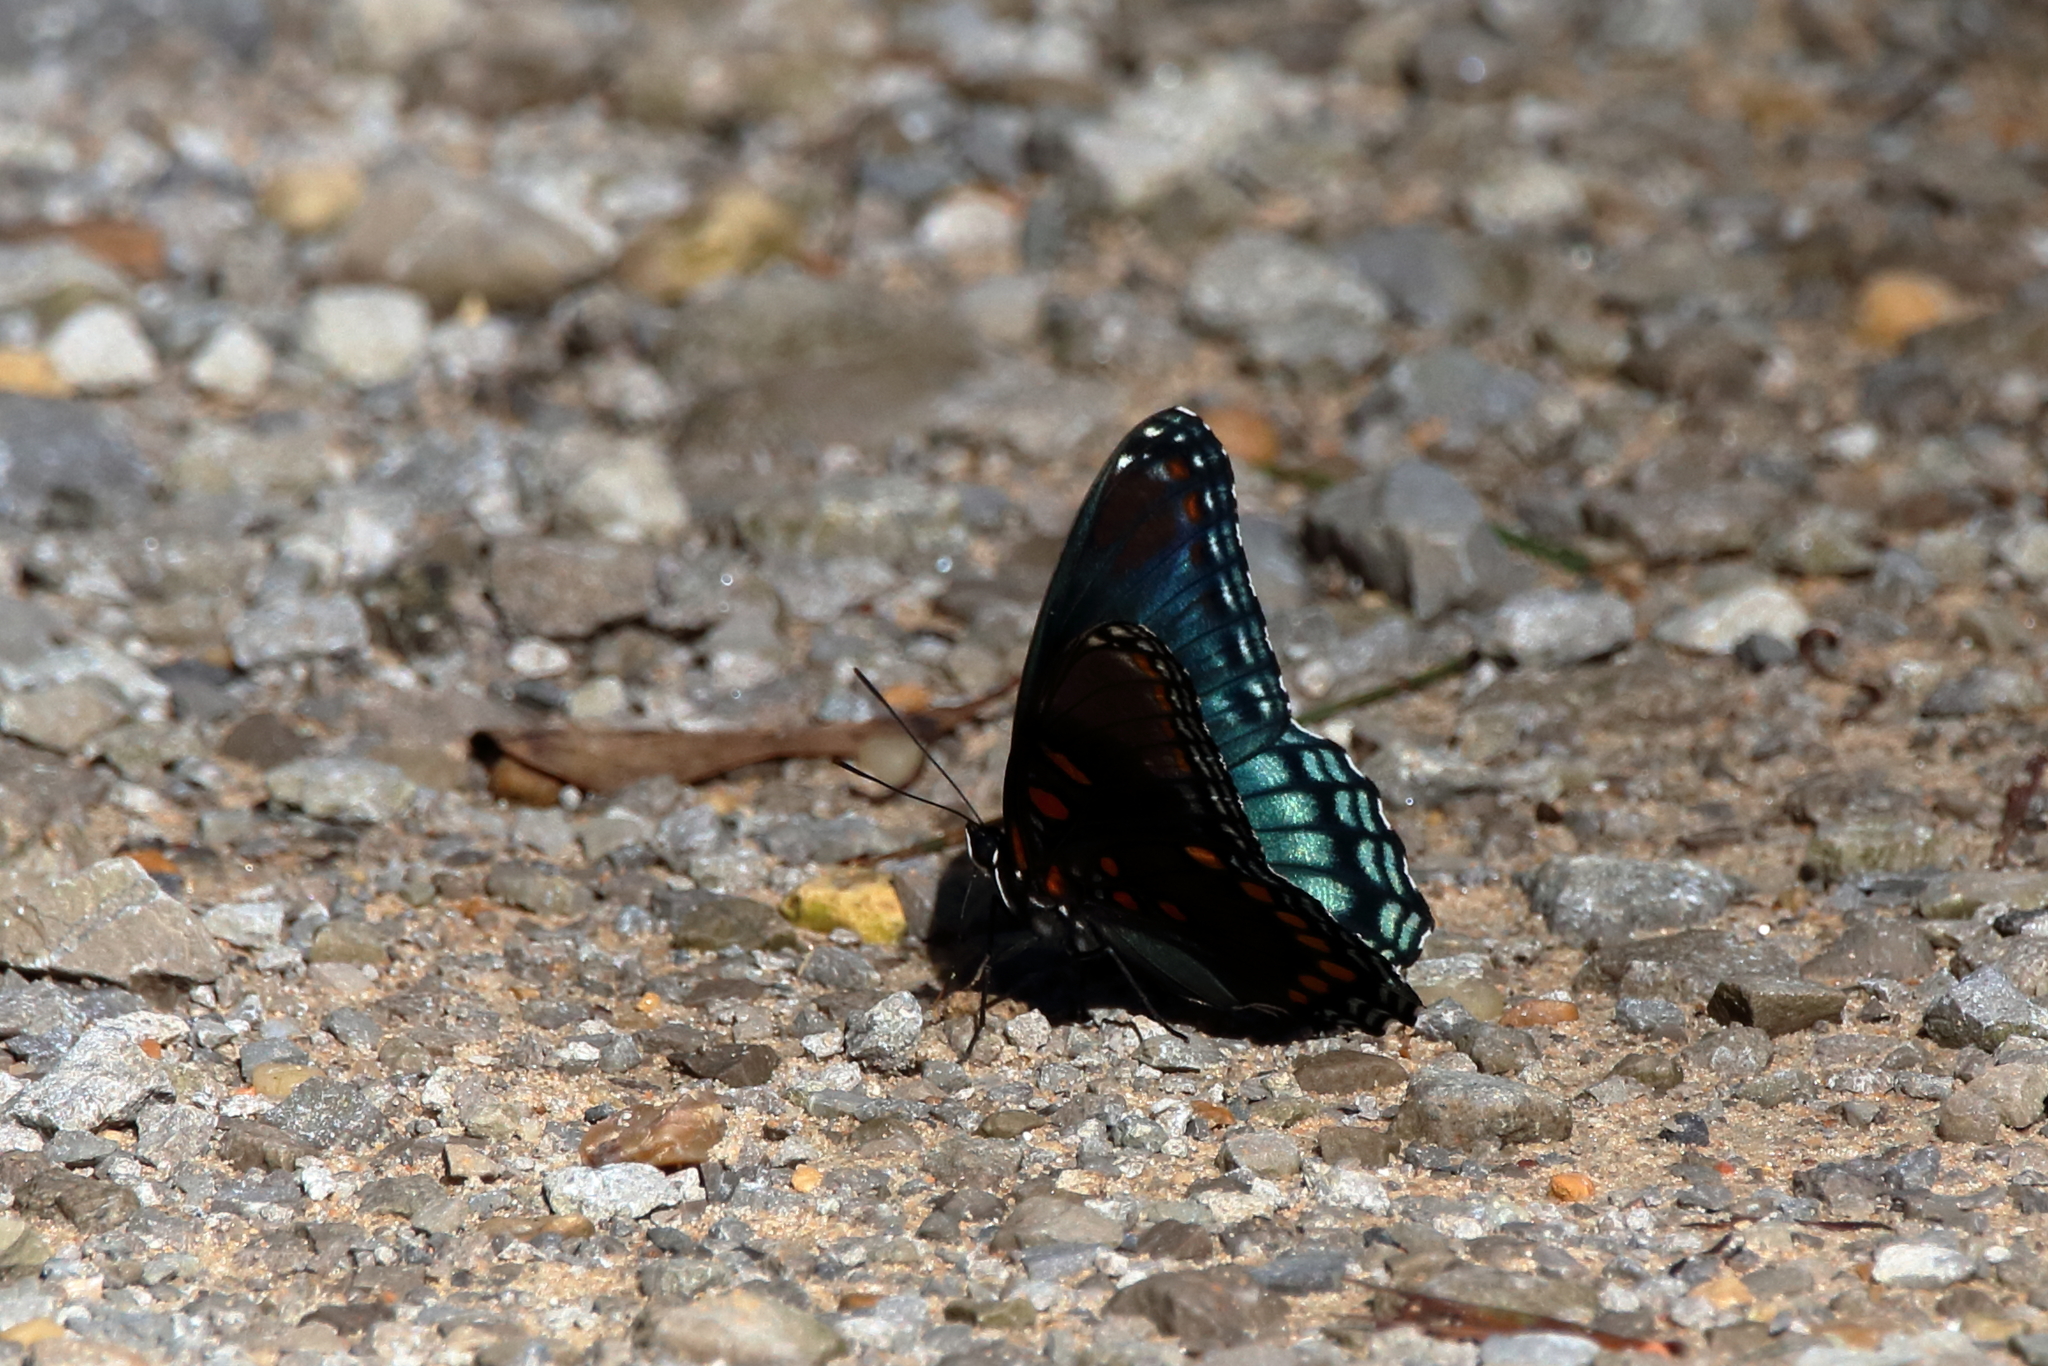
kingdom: Animalia
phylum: Arthropoda
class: Insecta
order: Lepidoptera
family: Nymphalidae
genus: Limenitis
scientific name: Limenitis astyanax
